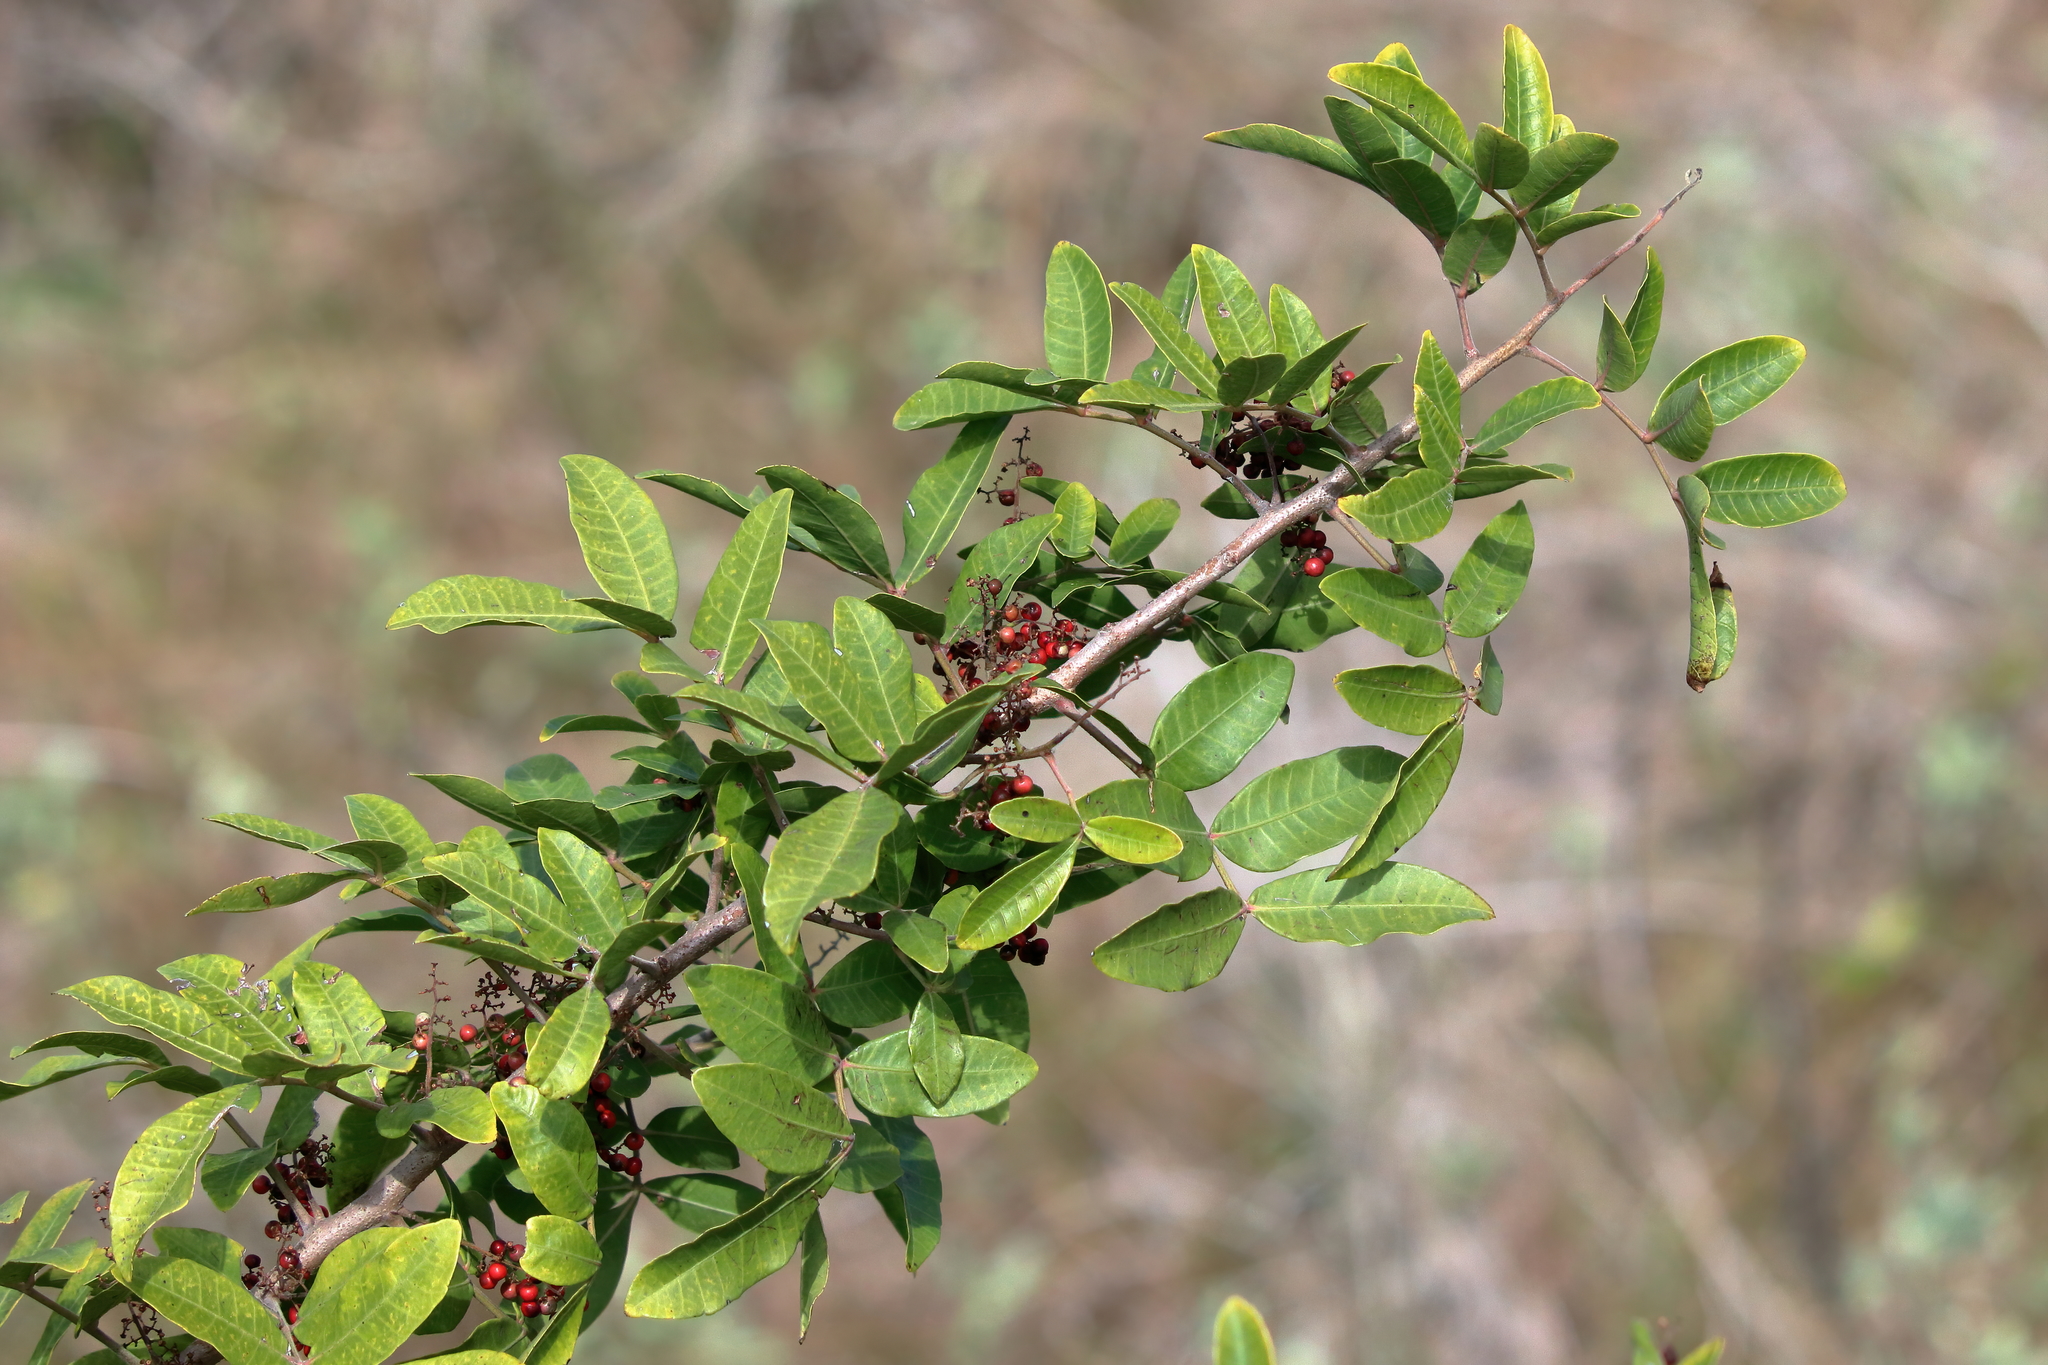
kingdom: Plantae
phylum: Tracheophyta
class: Magnoliopsida
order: Sapindales
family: Anacardiaceae
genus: Schinus
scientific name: Schinus terebinthifolia
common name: Brazilian peppertree
